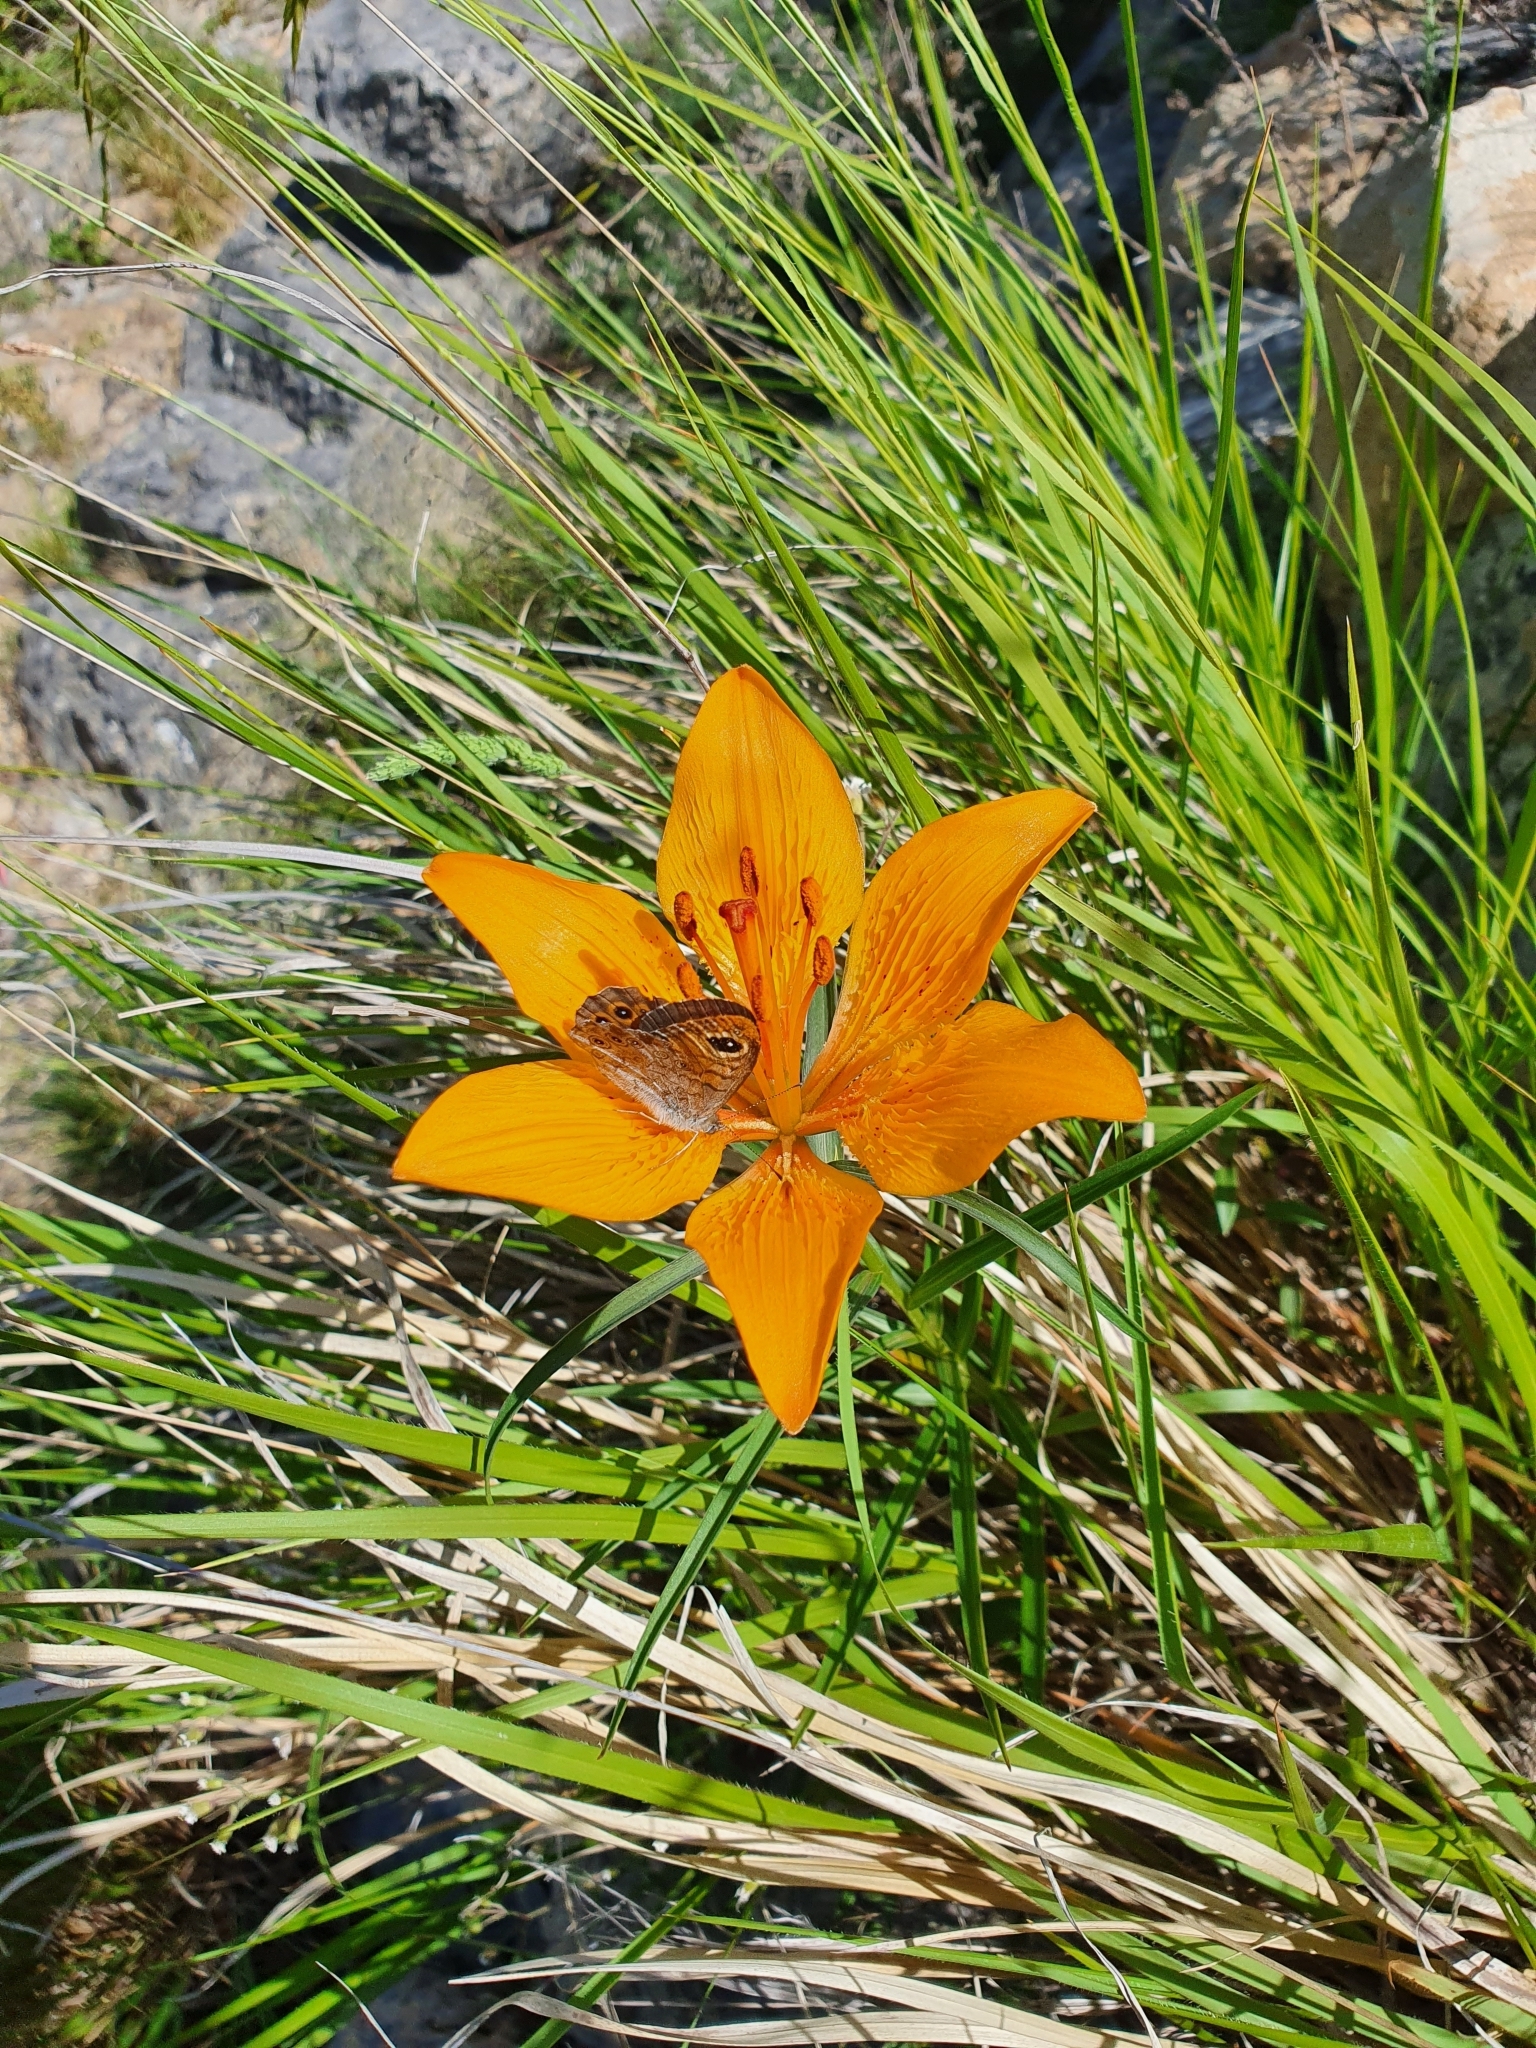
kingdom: Plantae
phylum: Tracheophyta
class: Liliopsida
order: Liliales
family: Liliaceae
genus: Lilium
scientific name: Lilium bulbiferum
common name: Orange lily
